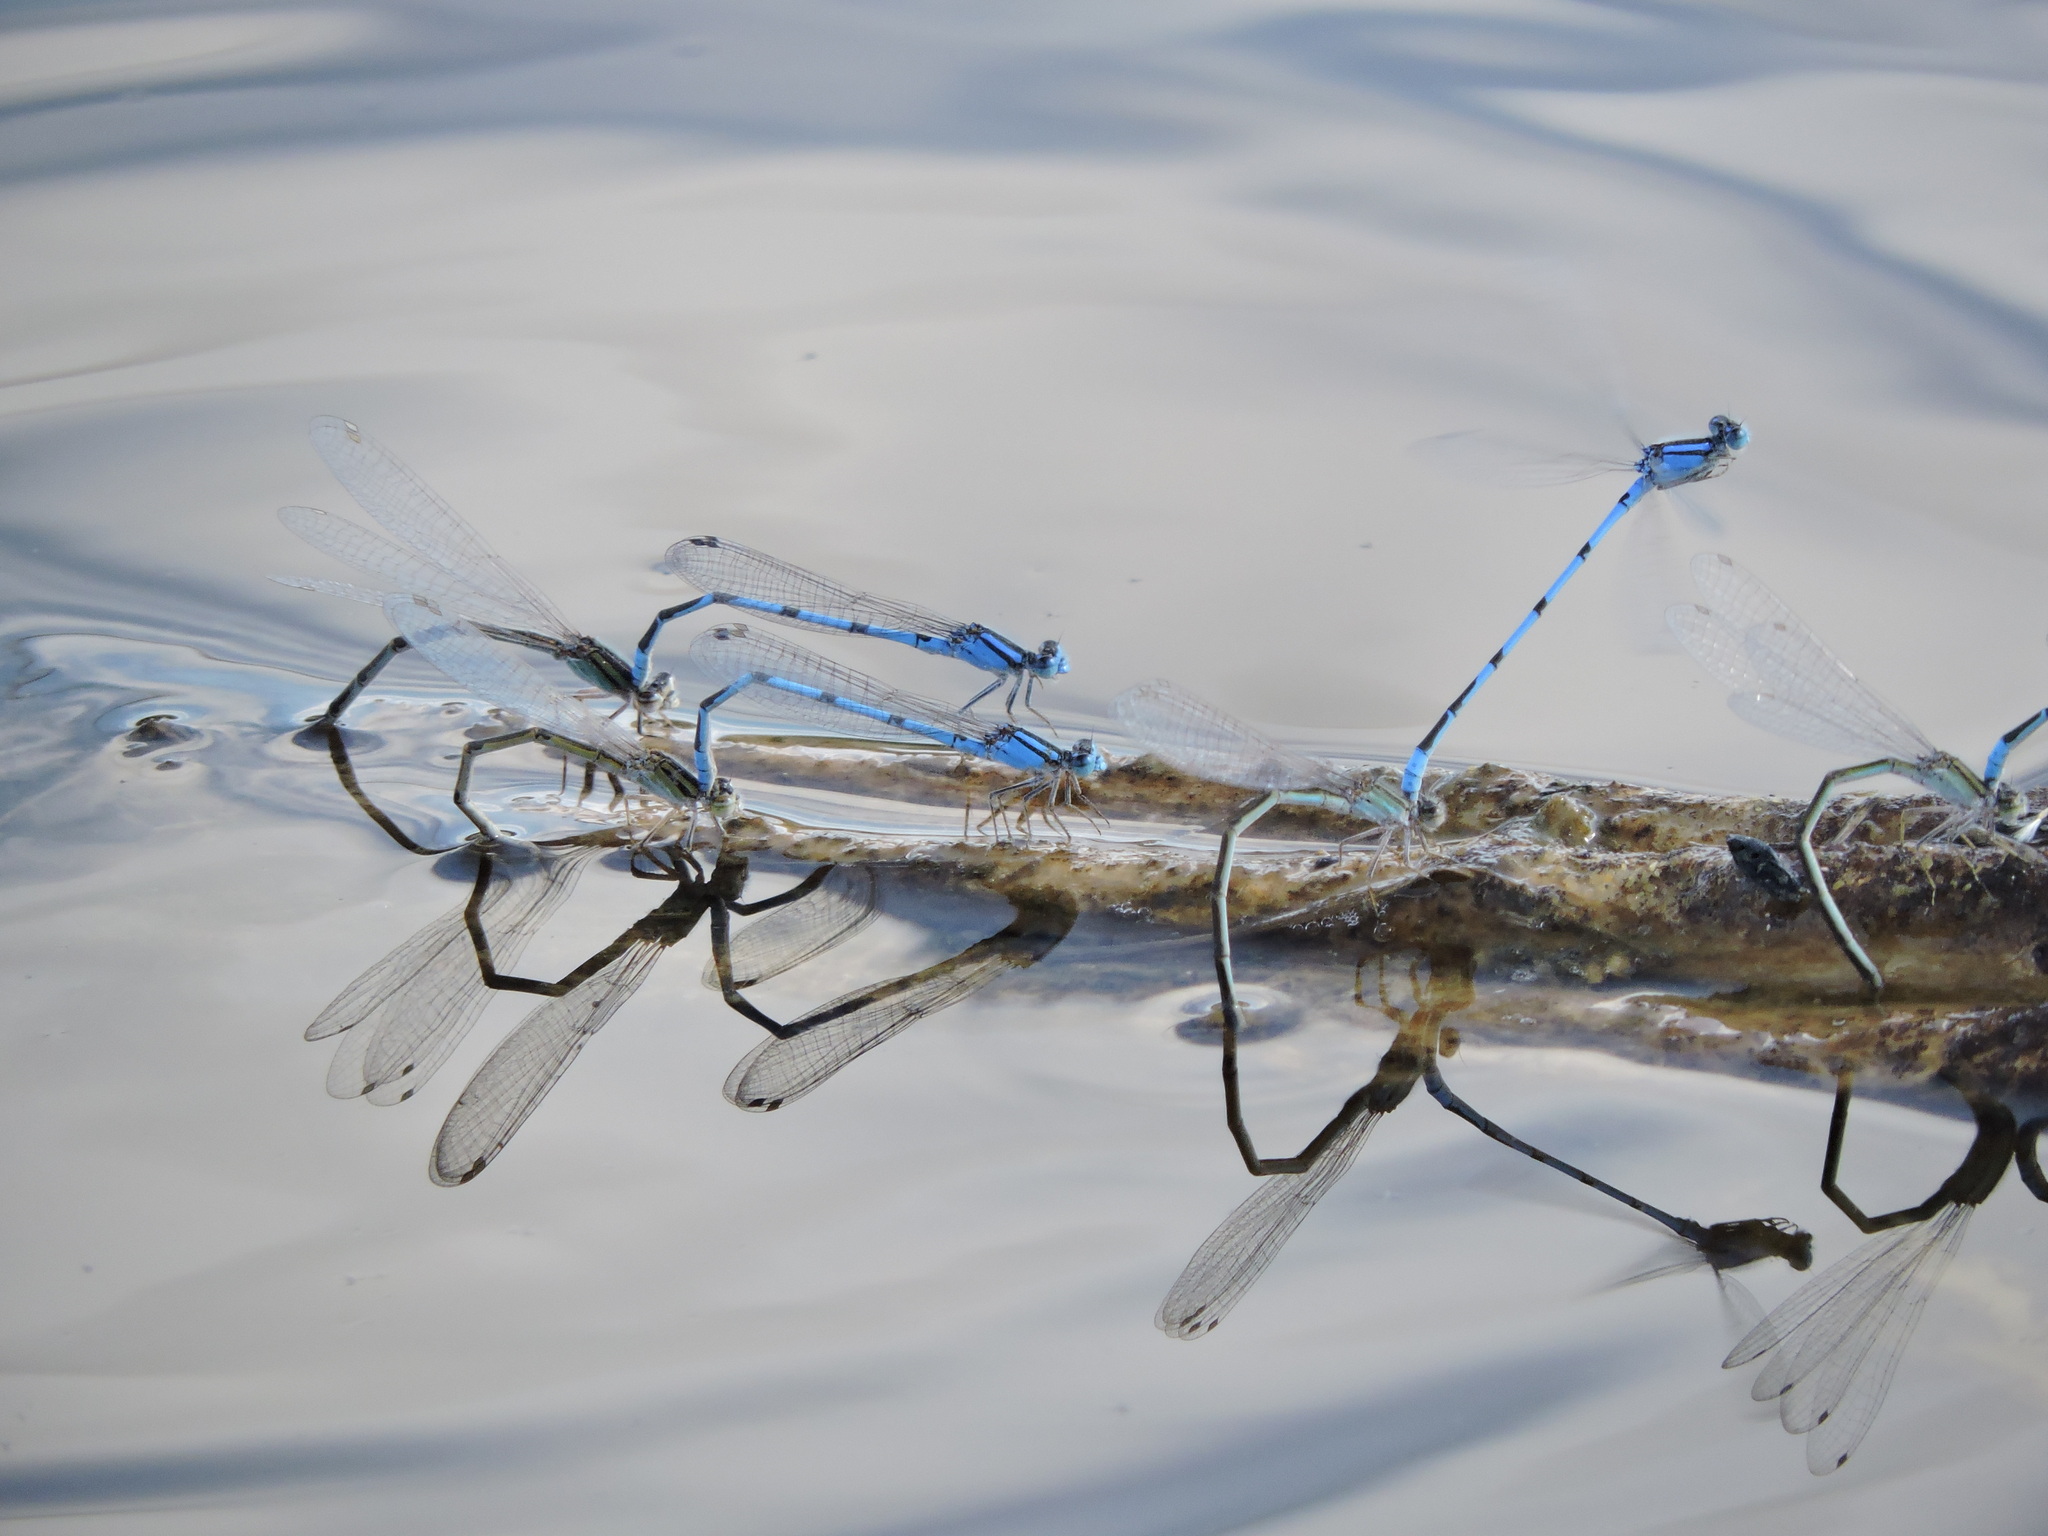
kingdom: Animalia
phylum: Arthropoda
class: Insecta
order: Odonata
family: Coenagrionidae
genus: Enallagma
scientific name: Enallagma civile
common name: Damselfly
